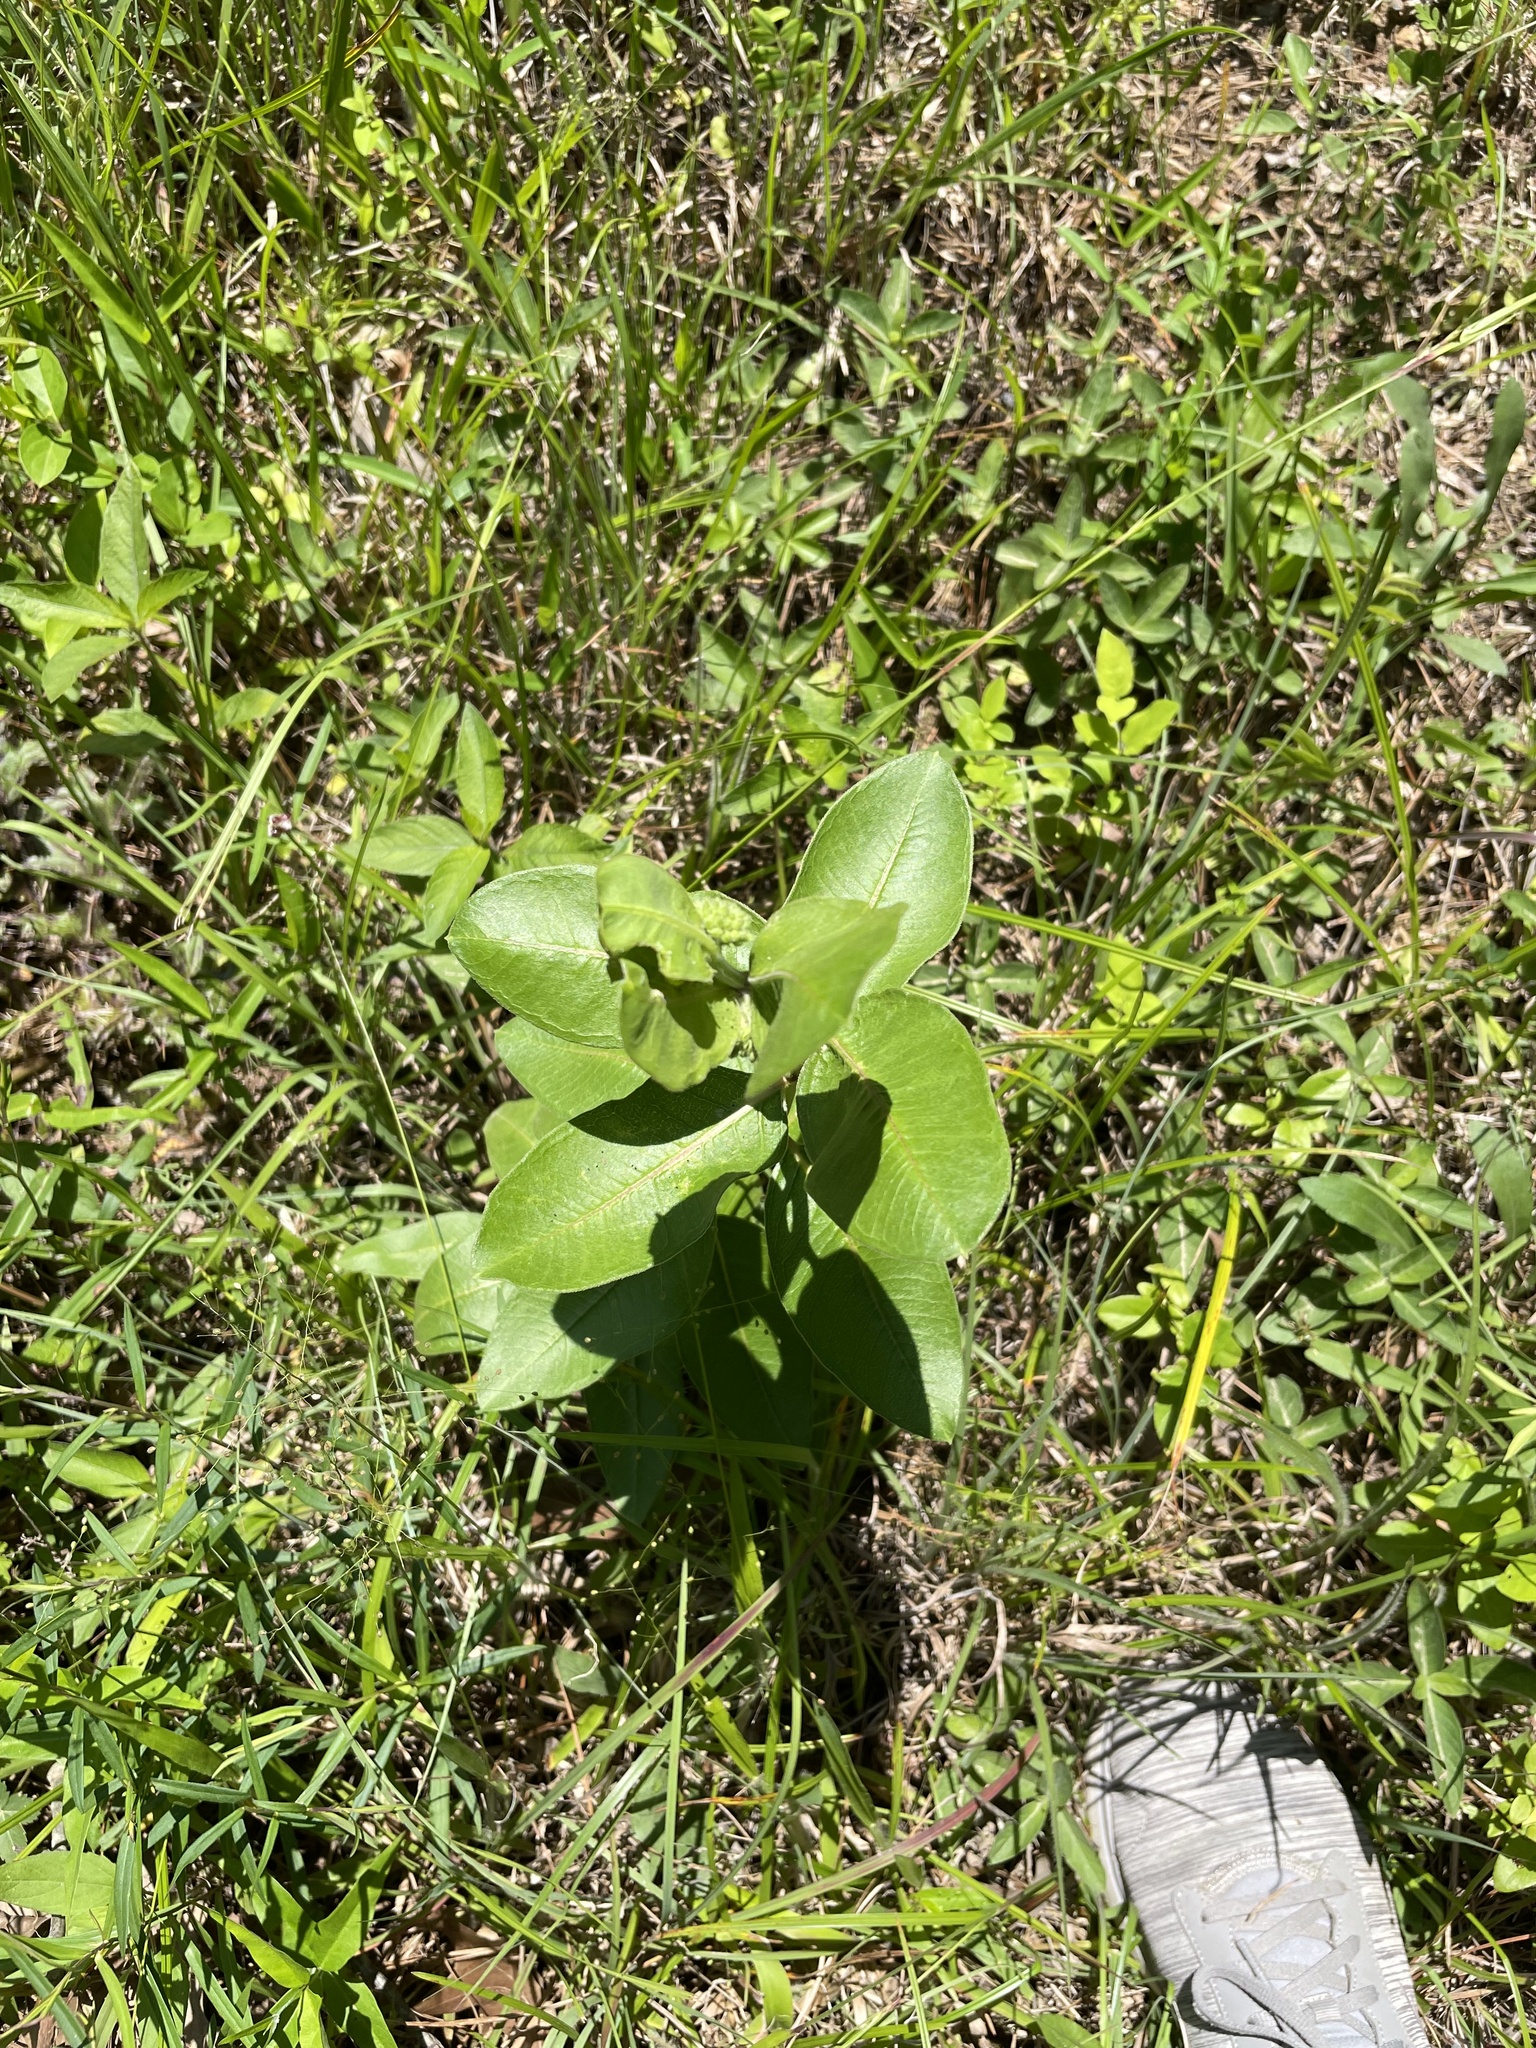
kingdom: Plantae
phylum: Tracheophyta
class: Magnoliopsida
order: Gentianales
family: Apocynaceae
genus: Asclepias
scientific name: Asclepias viridiflora
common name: Green comet milkweed
